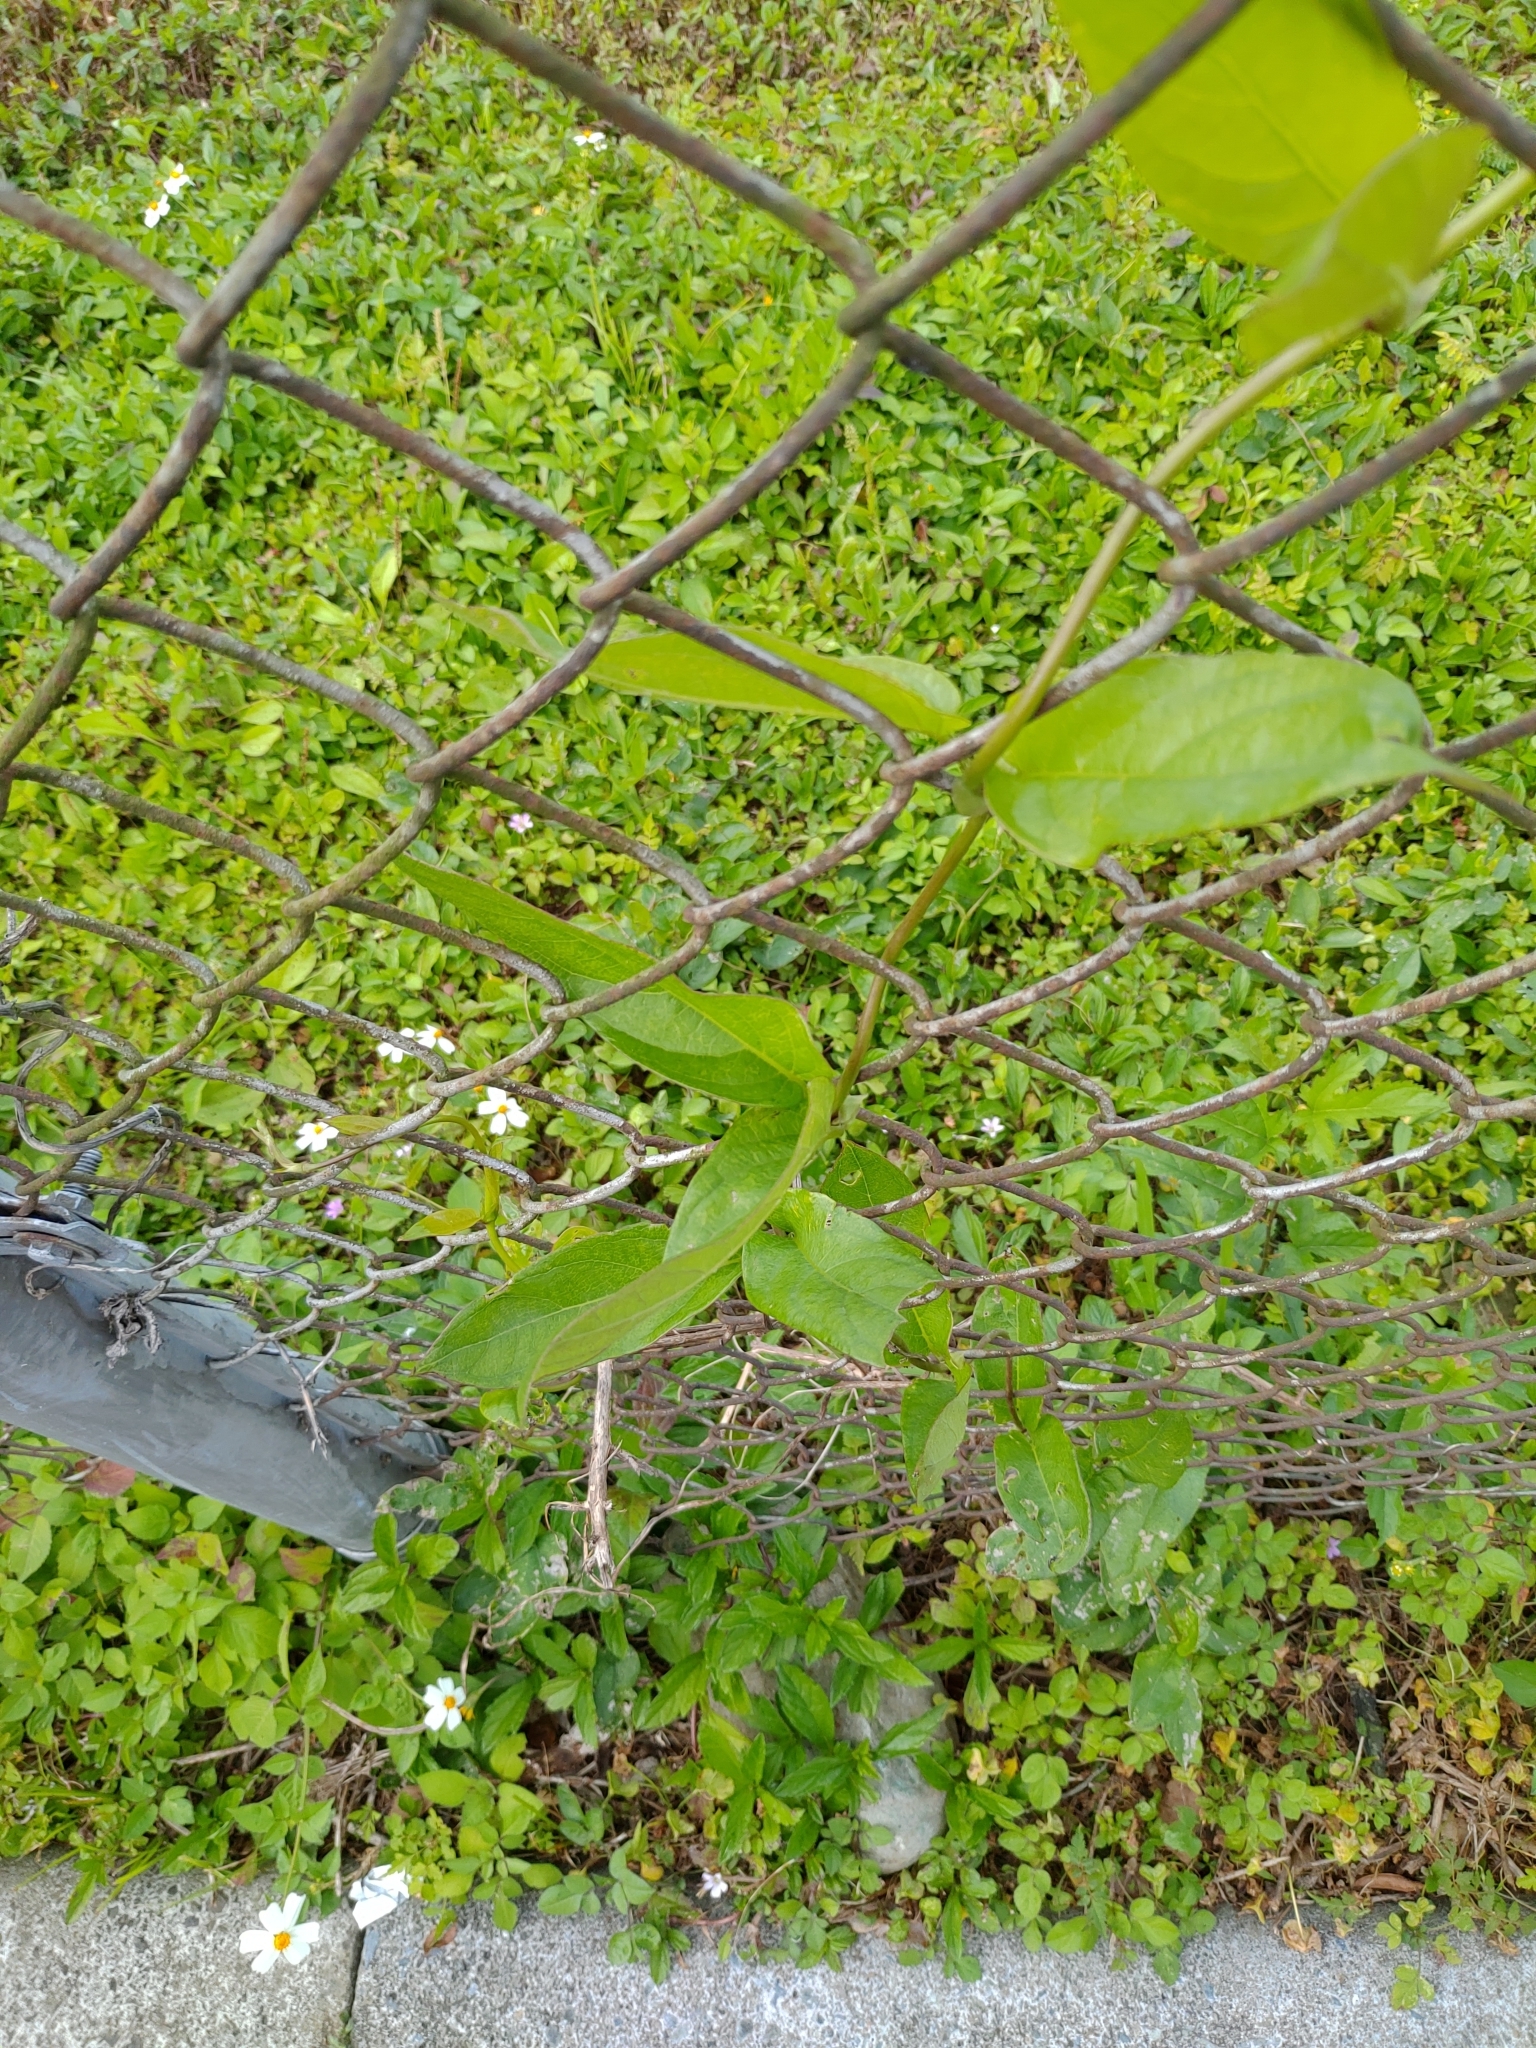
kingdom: Plantae
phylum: Tracheophyta
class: Magnoliopsida
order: Gentianales
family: Rubiaceae
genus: Paederia
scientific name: Paederia foetida
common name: Stinkvine
